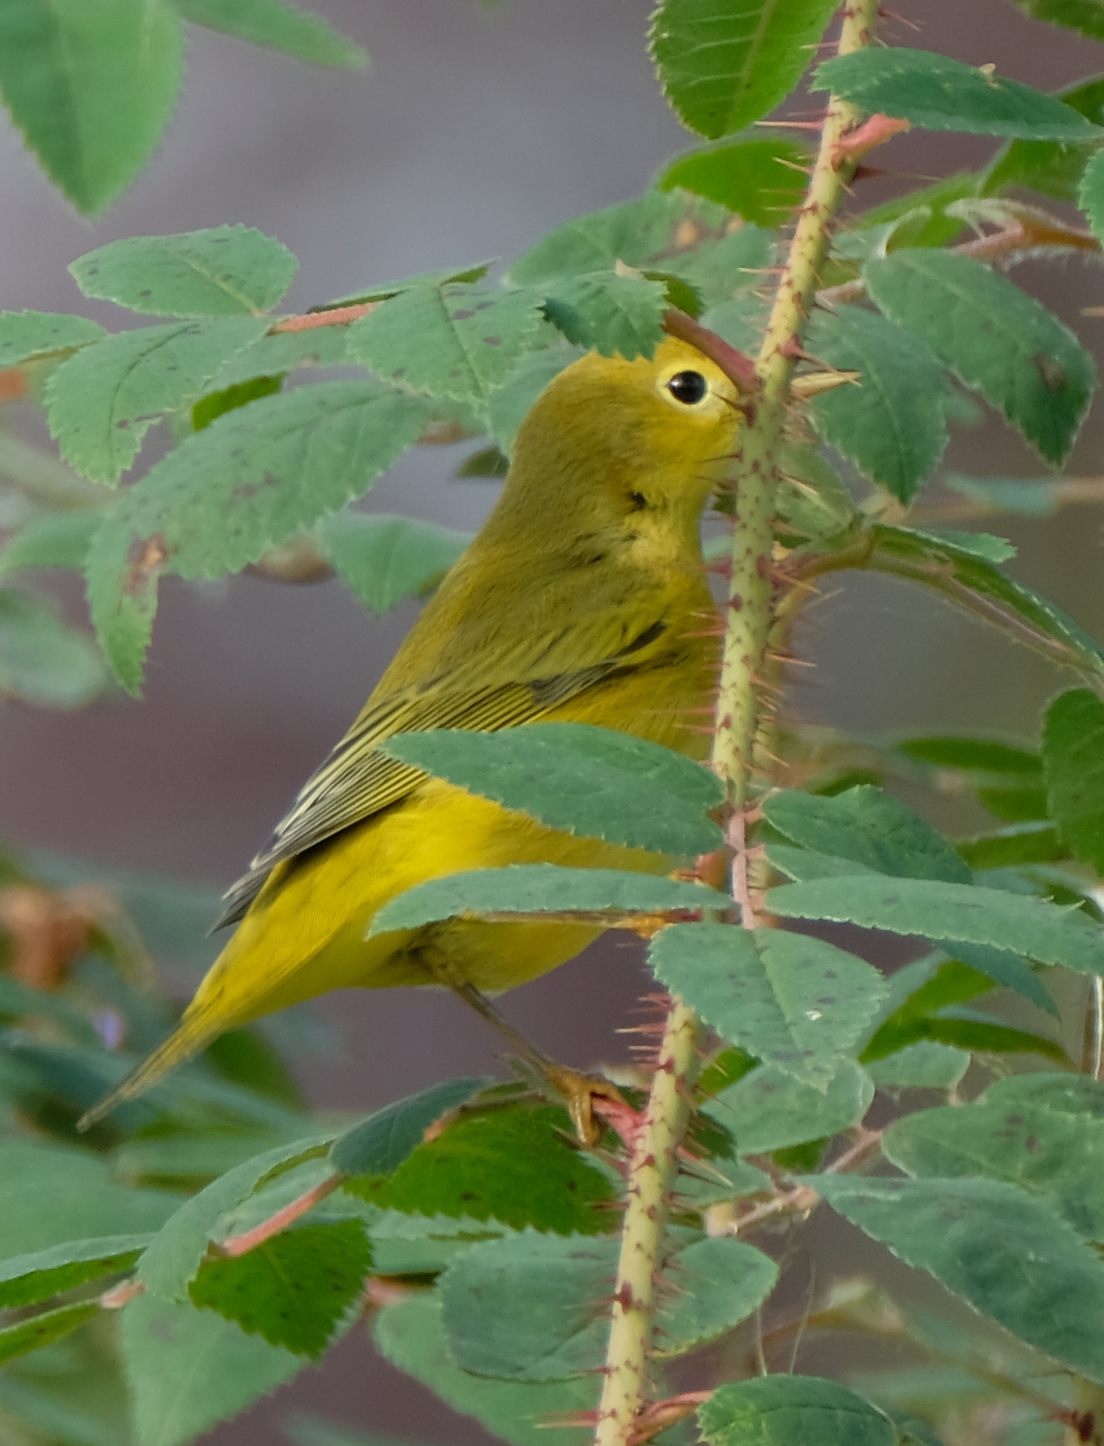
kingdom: Animalia
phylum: Chordata
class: Aves
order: Passeriformes
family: Parulidae
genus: Setophaga
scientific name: Setophaga petechia
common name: Yellow warbler
